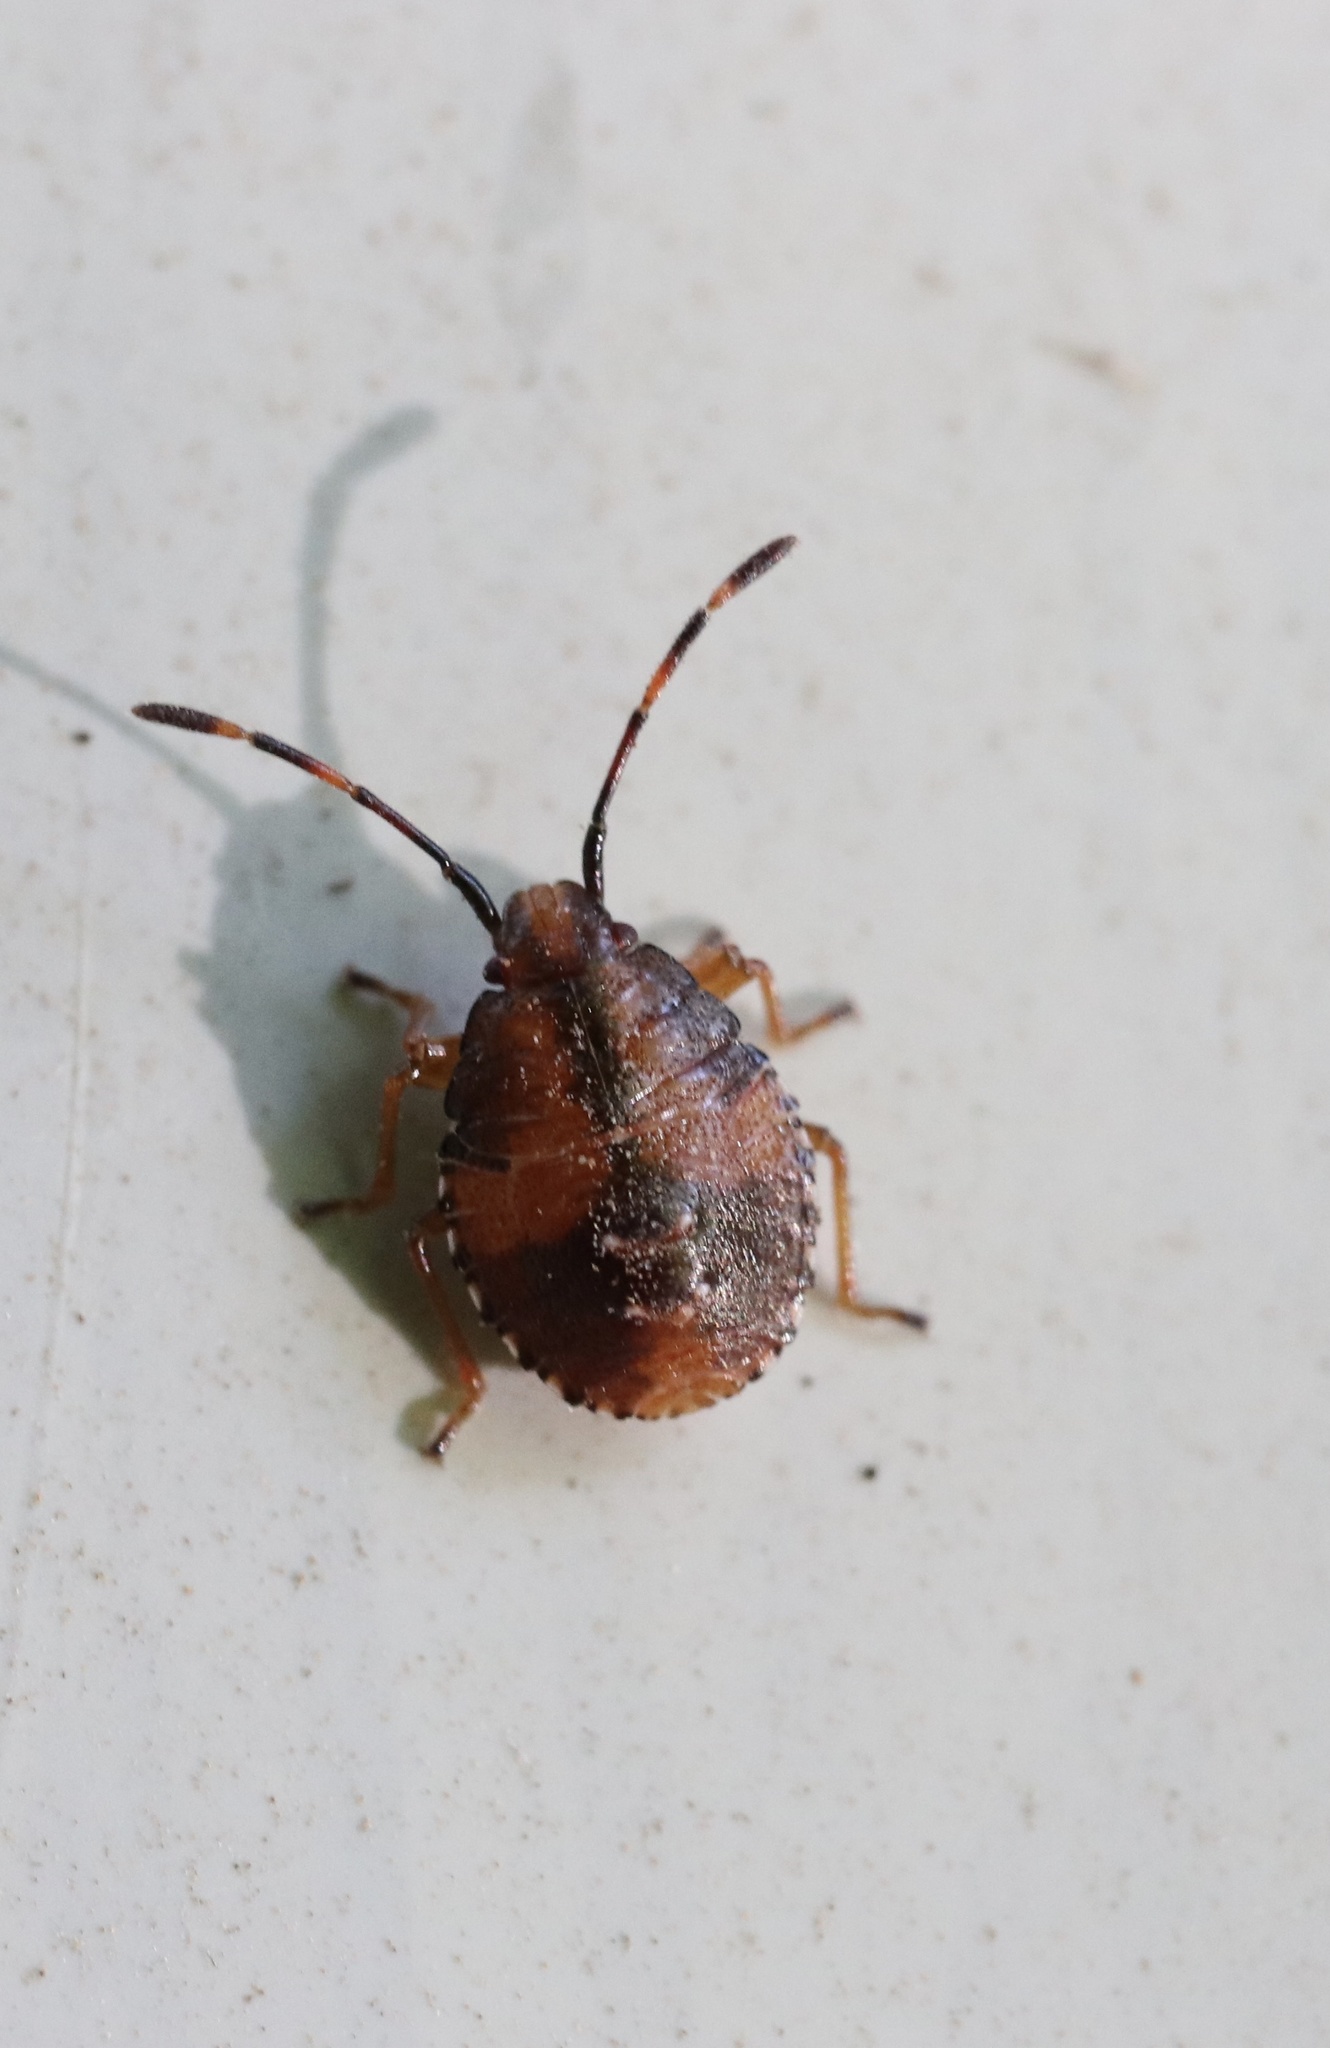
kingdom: Animalia
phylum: Arthropoda
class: Insecta
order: Hemiptera
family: Acanthosomatidae
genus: Planois
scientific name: Planois gayi
